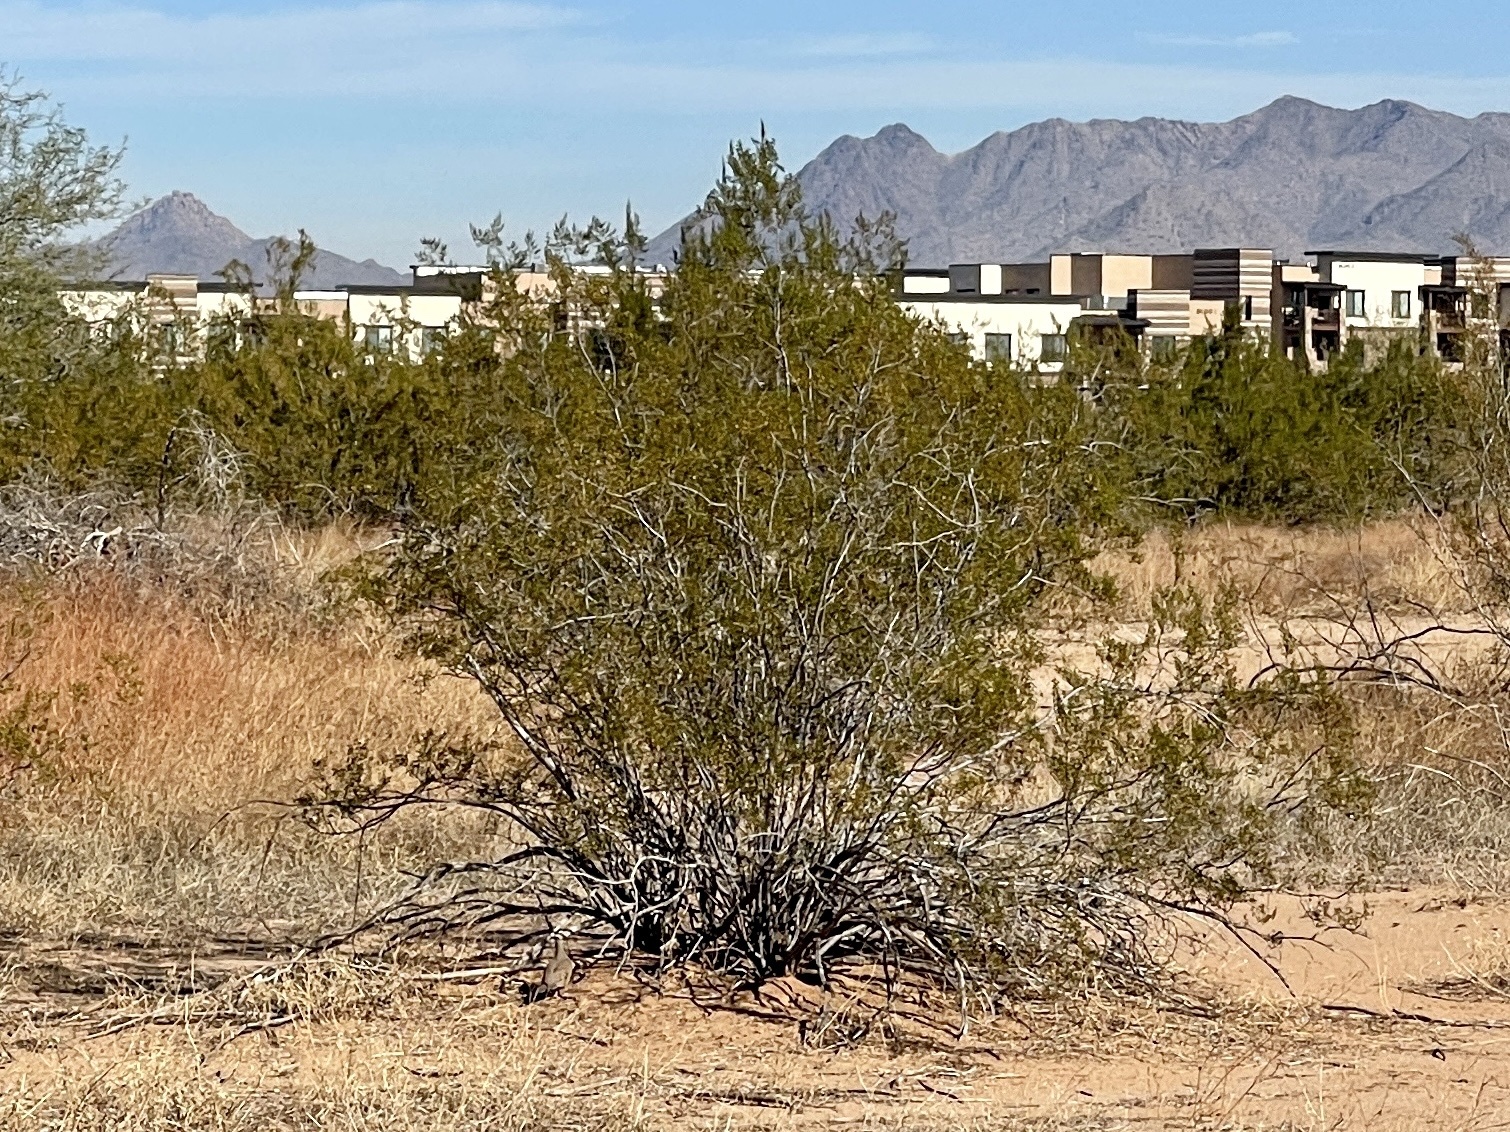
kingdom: Plantae
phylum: Tracheophyta
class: Magnoliopsida
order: Zygophyllales
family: Zygophyllaceae
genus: Larrea
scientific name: Larrea tridentata
